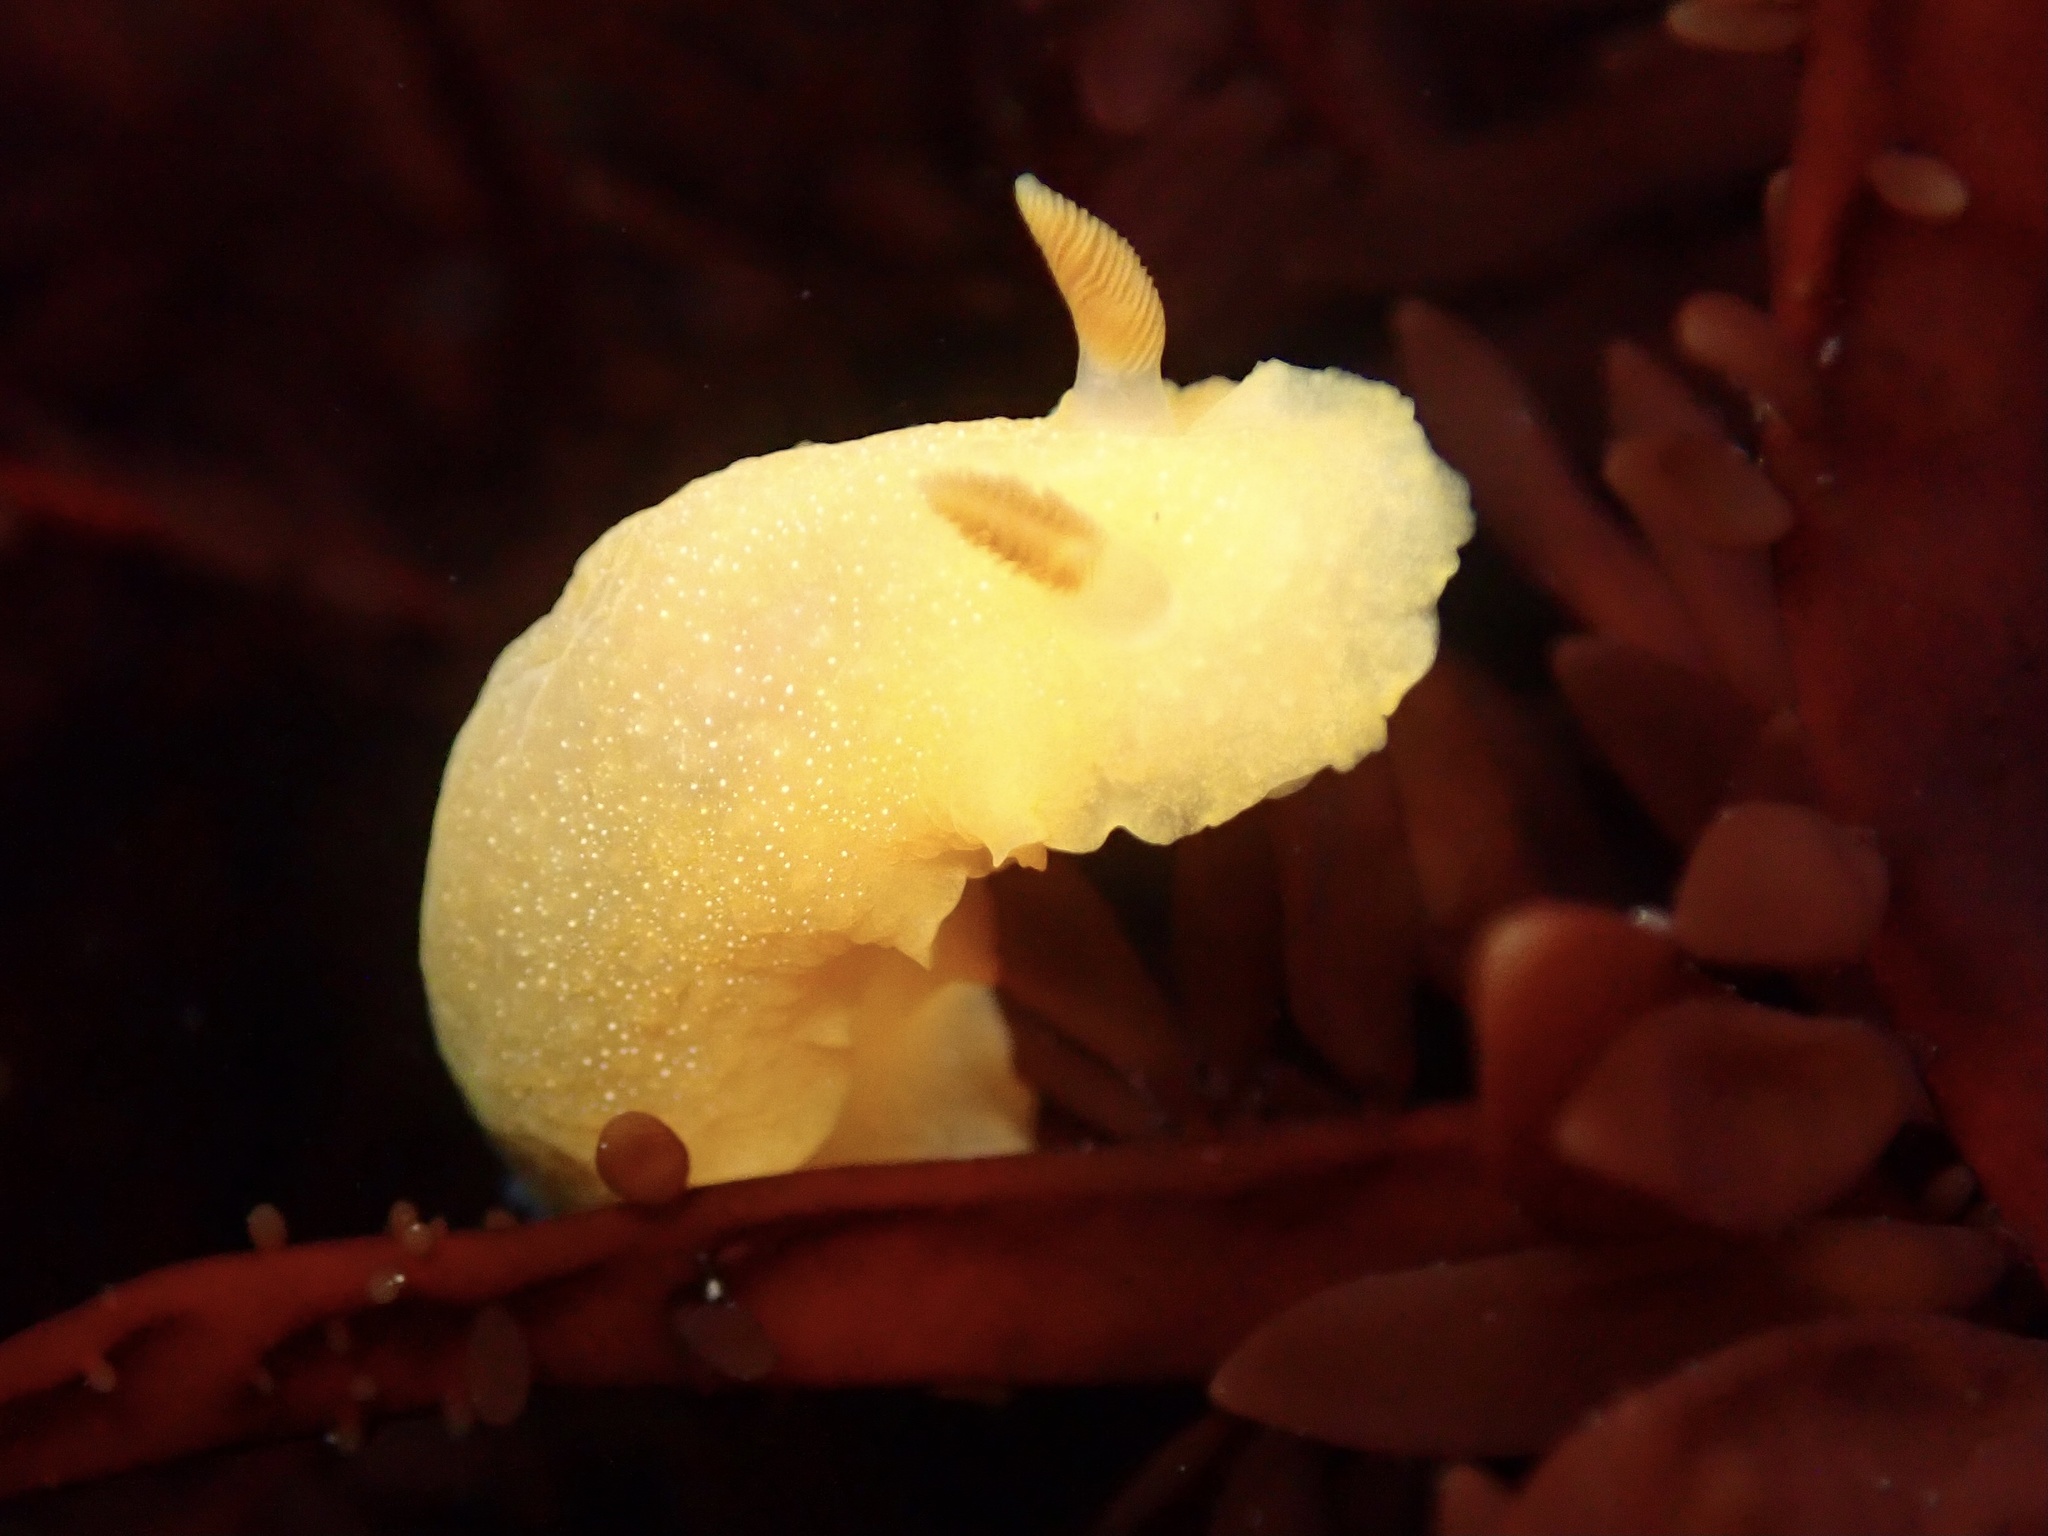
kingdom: Animalia
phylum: Mollusca
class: Gastropoda
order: Nudibranchia
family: Dendrodorididae
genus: Doriopsilla
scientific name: Doriopsilla albopunctata
